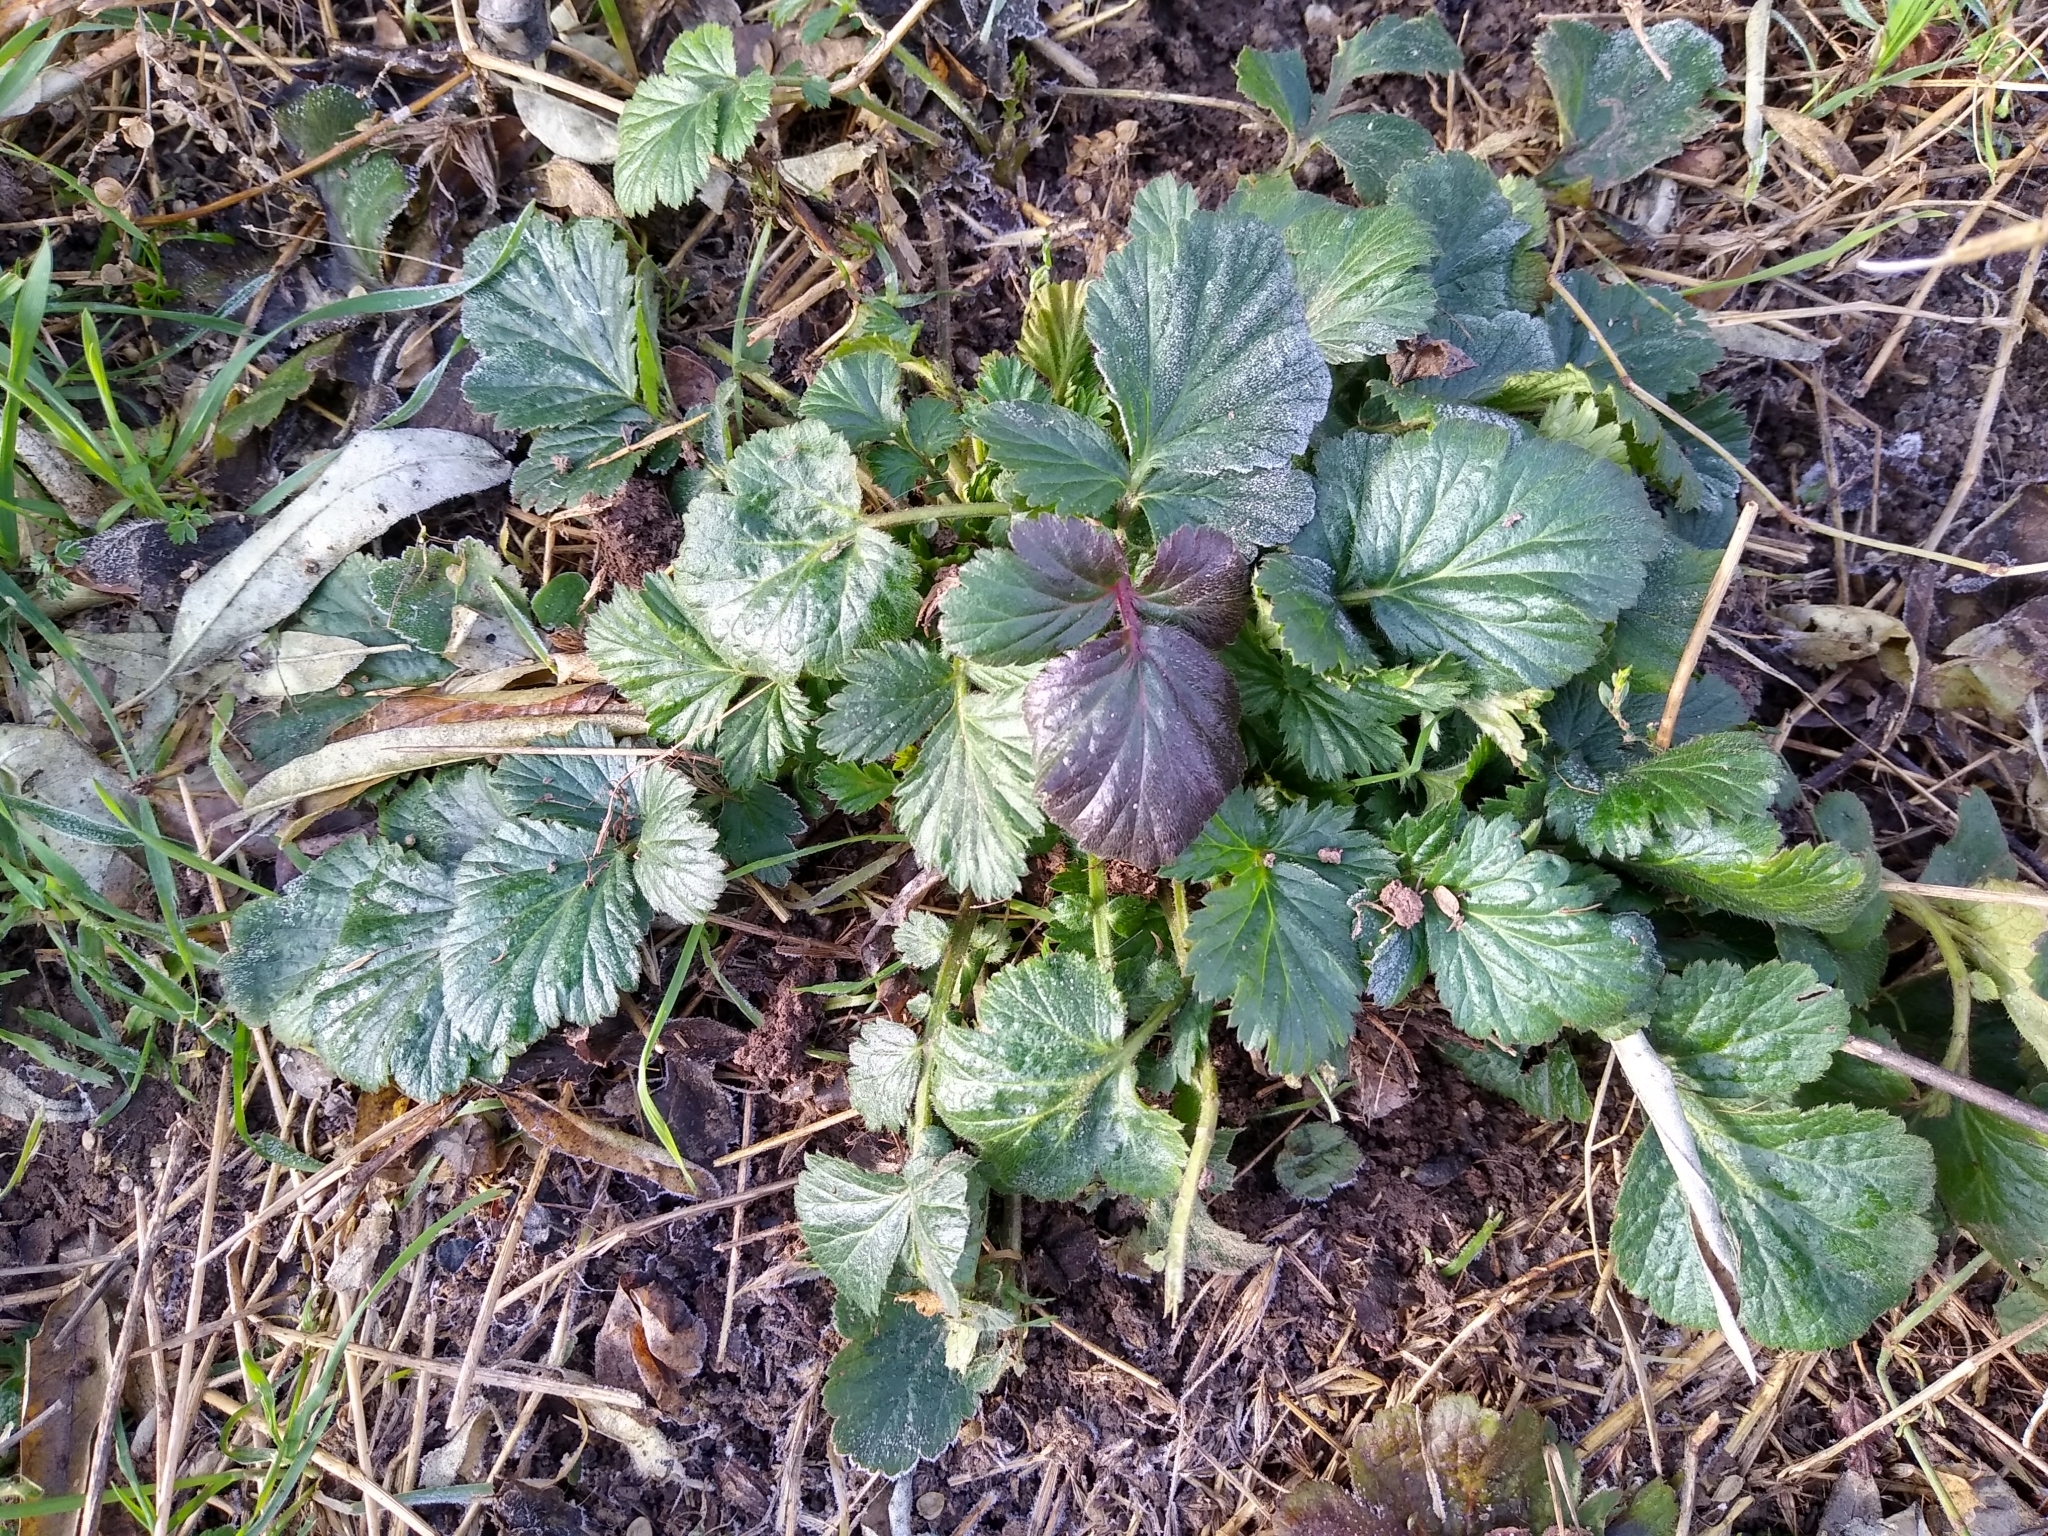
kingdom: Plantae
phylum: Tracheophyta
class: Magnoliopsida
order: Rosales
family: Rosaceae
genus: Geum
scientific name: Geum urbanum
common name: Wood avens
